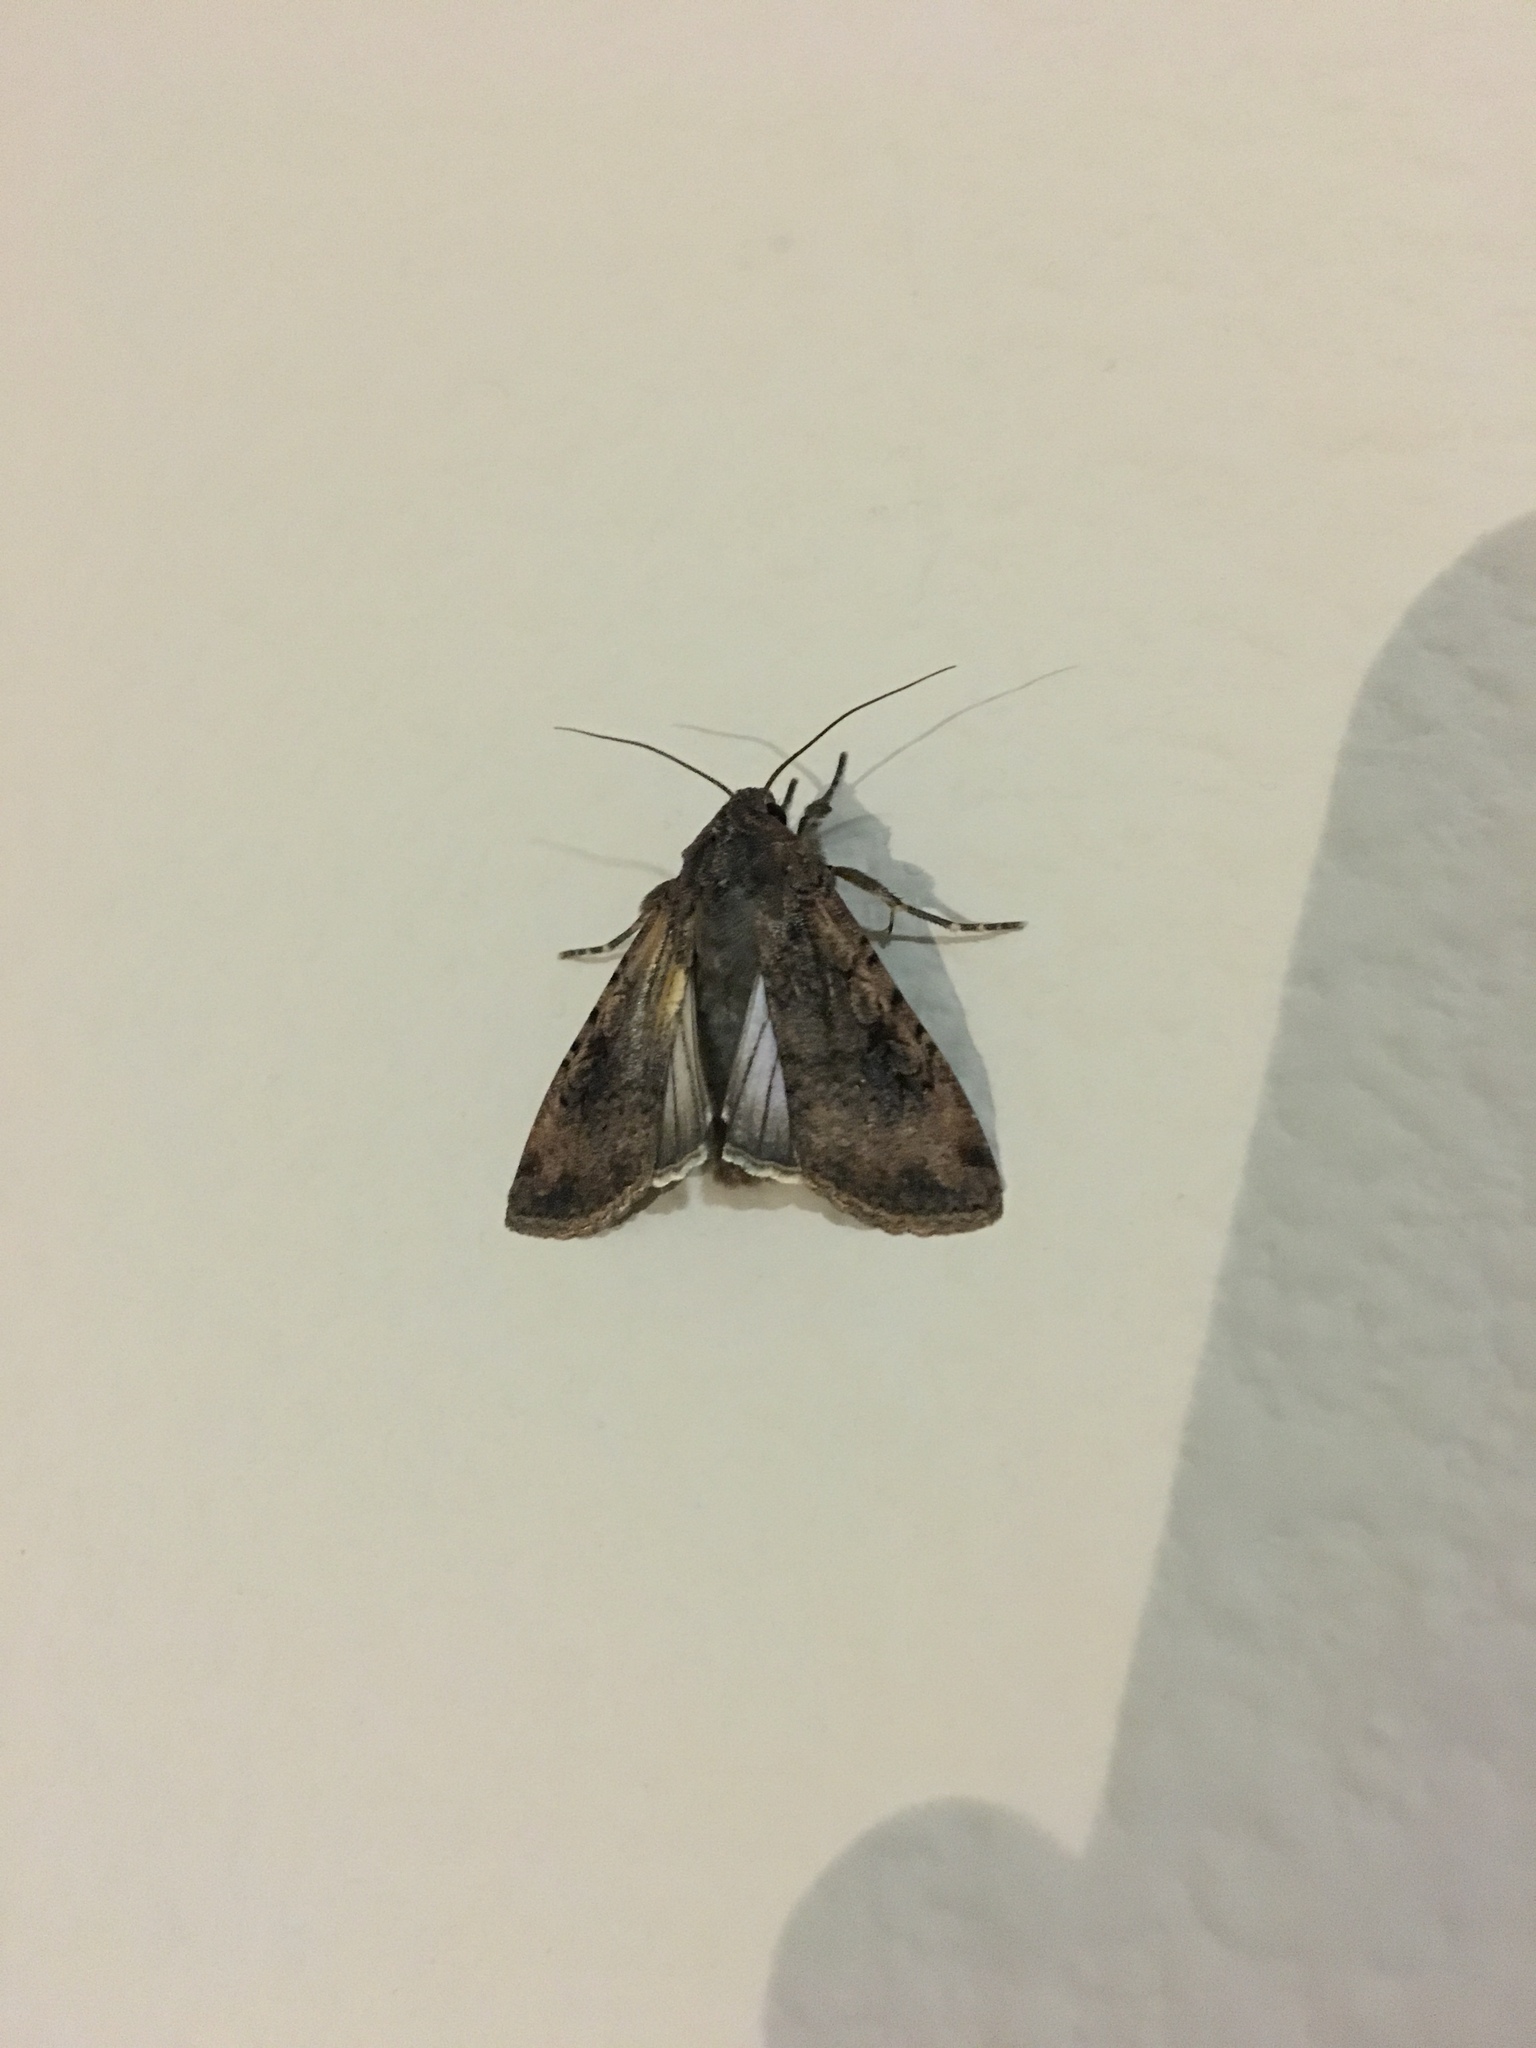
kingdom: Animalia
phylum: Arthropoda
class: Insecta
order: Lepidoptera
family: Noctuidae
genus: Peridroma
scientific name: Peridroma saucia
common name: Pearly underwing
